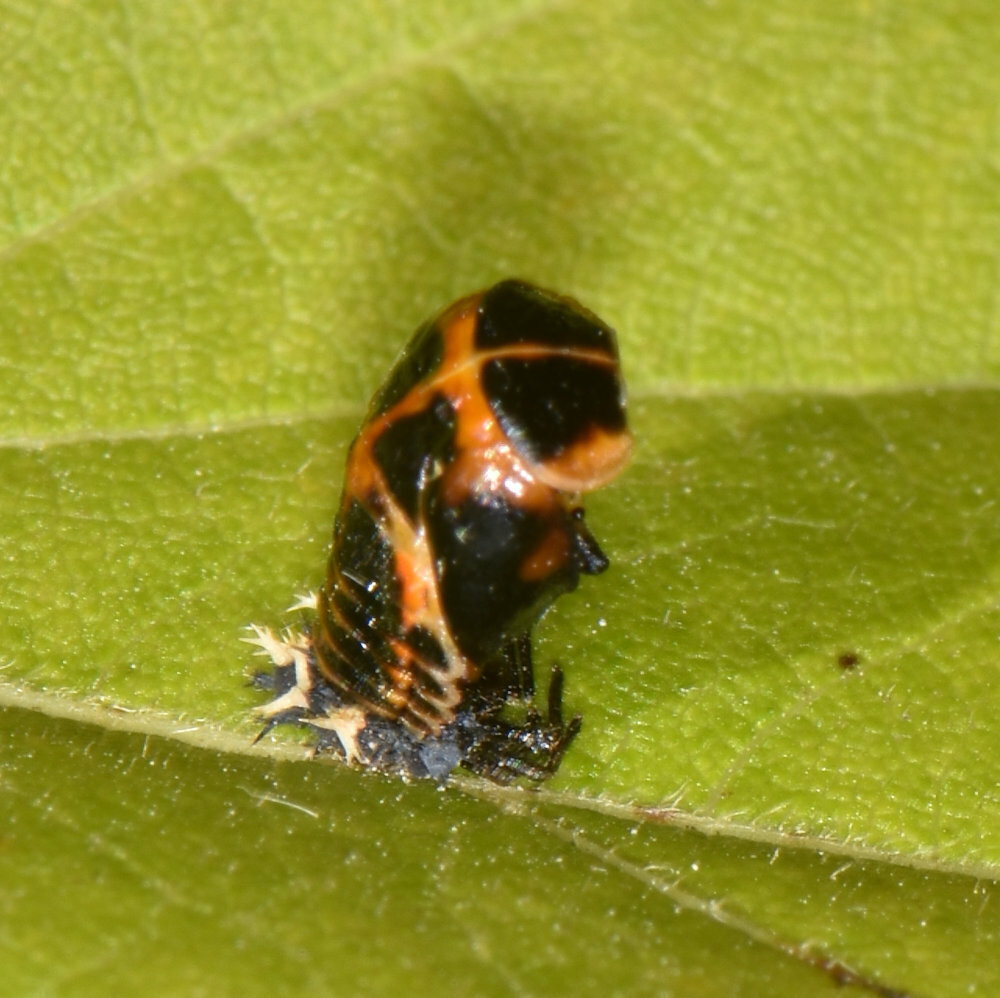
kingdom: Animalia
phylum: Arthropoda
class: Insecta
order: Coleoptera
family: Coccinellidae
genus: Harmonia
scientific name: Harmonia axyridis
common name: Harlequin ladybird
